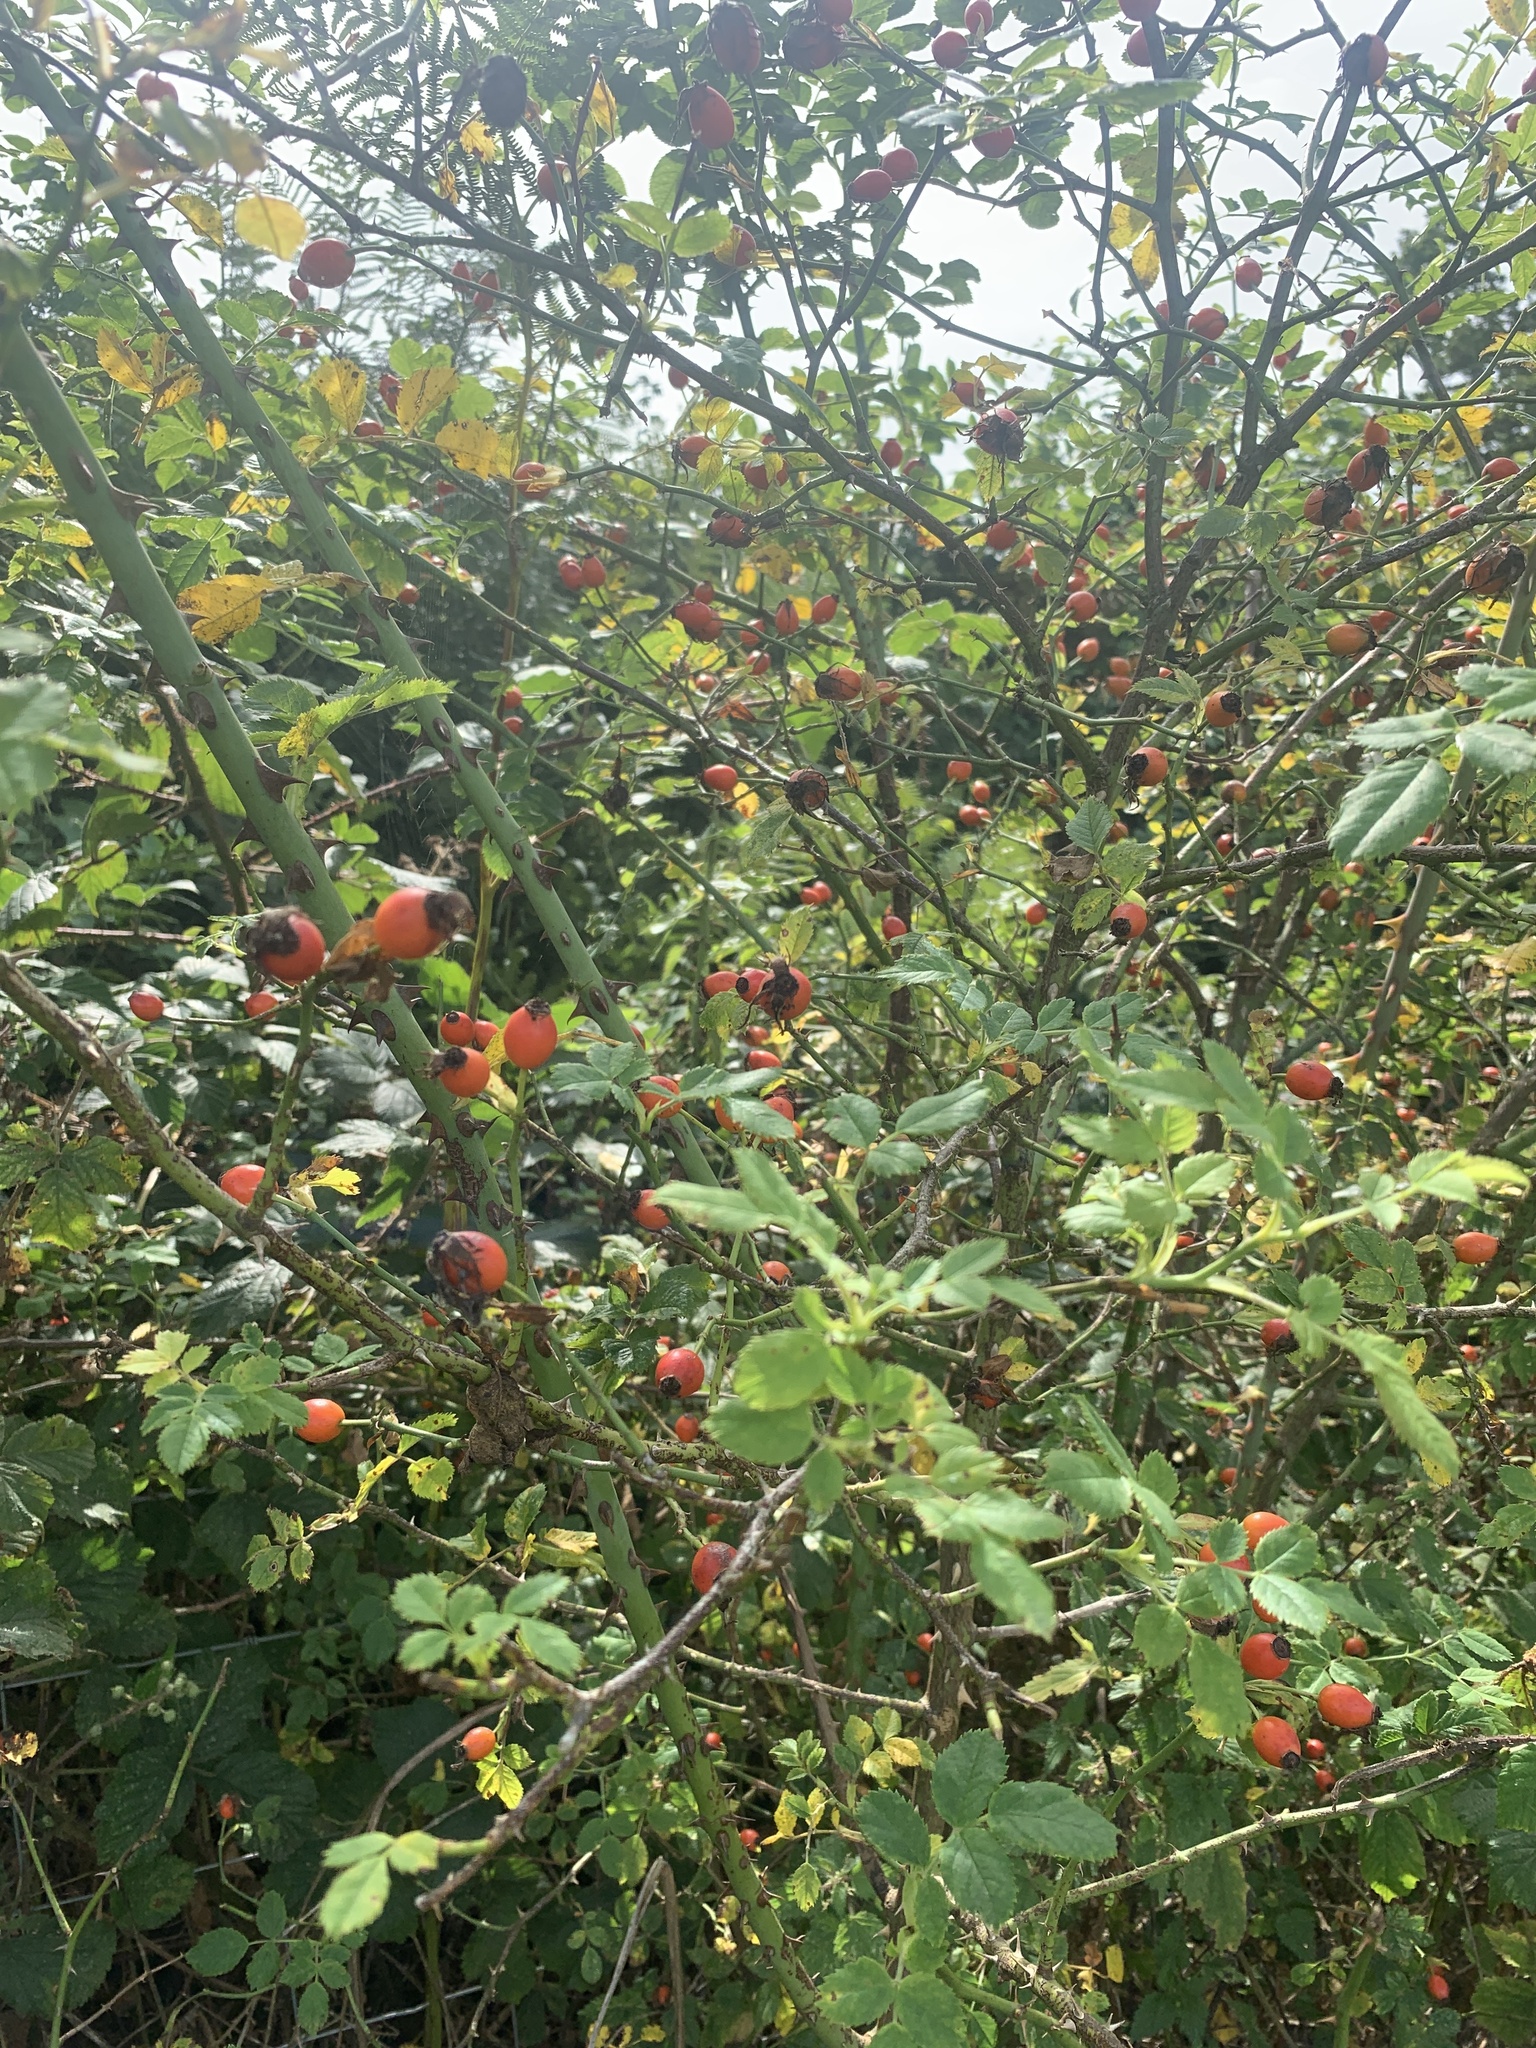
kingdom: Plantae
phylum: Tracheophyta
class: Magnoliopsida
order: Rosales
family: Rosaceae
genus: Rosa
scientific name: Rosa canina
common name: Dog rose
